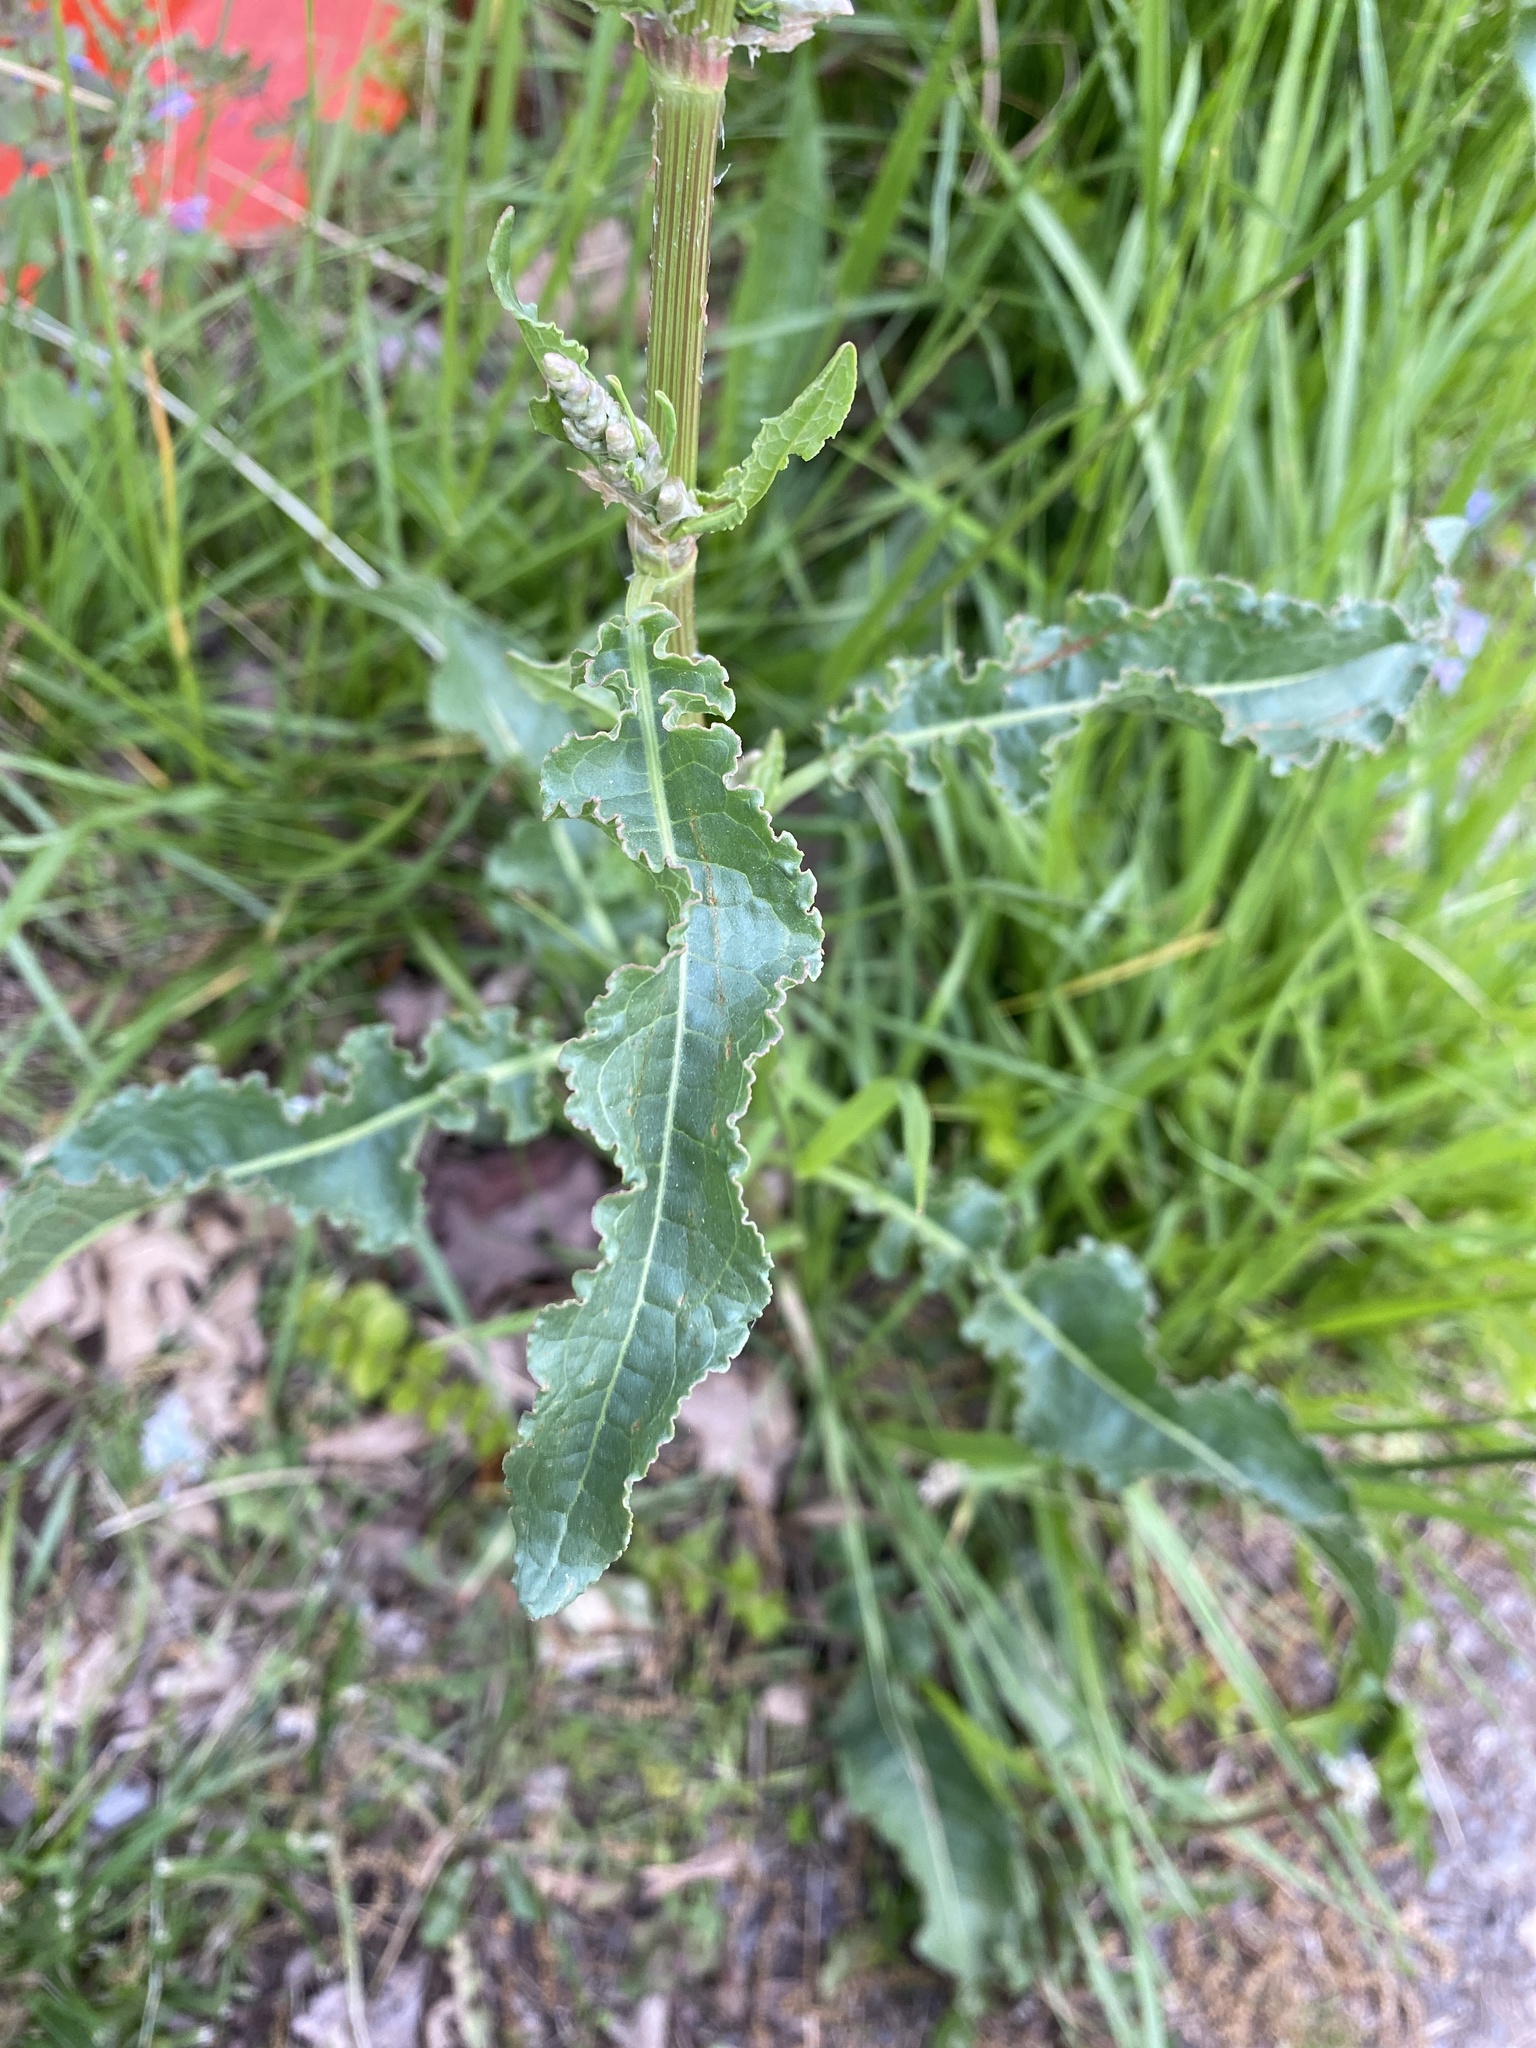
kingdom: Plantae
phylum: Tracheophyta
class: Magnoliopsida
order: Caryophyllales
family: Polygonaceae
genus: Rumex
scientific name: Rumex crispus
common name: Curled dock
